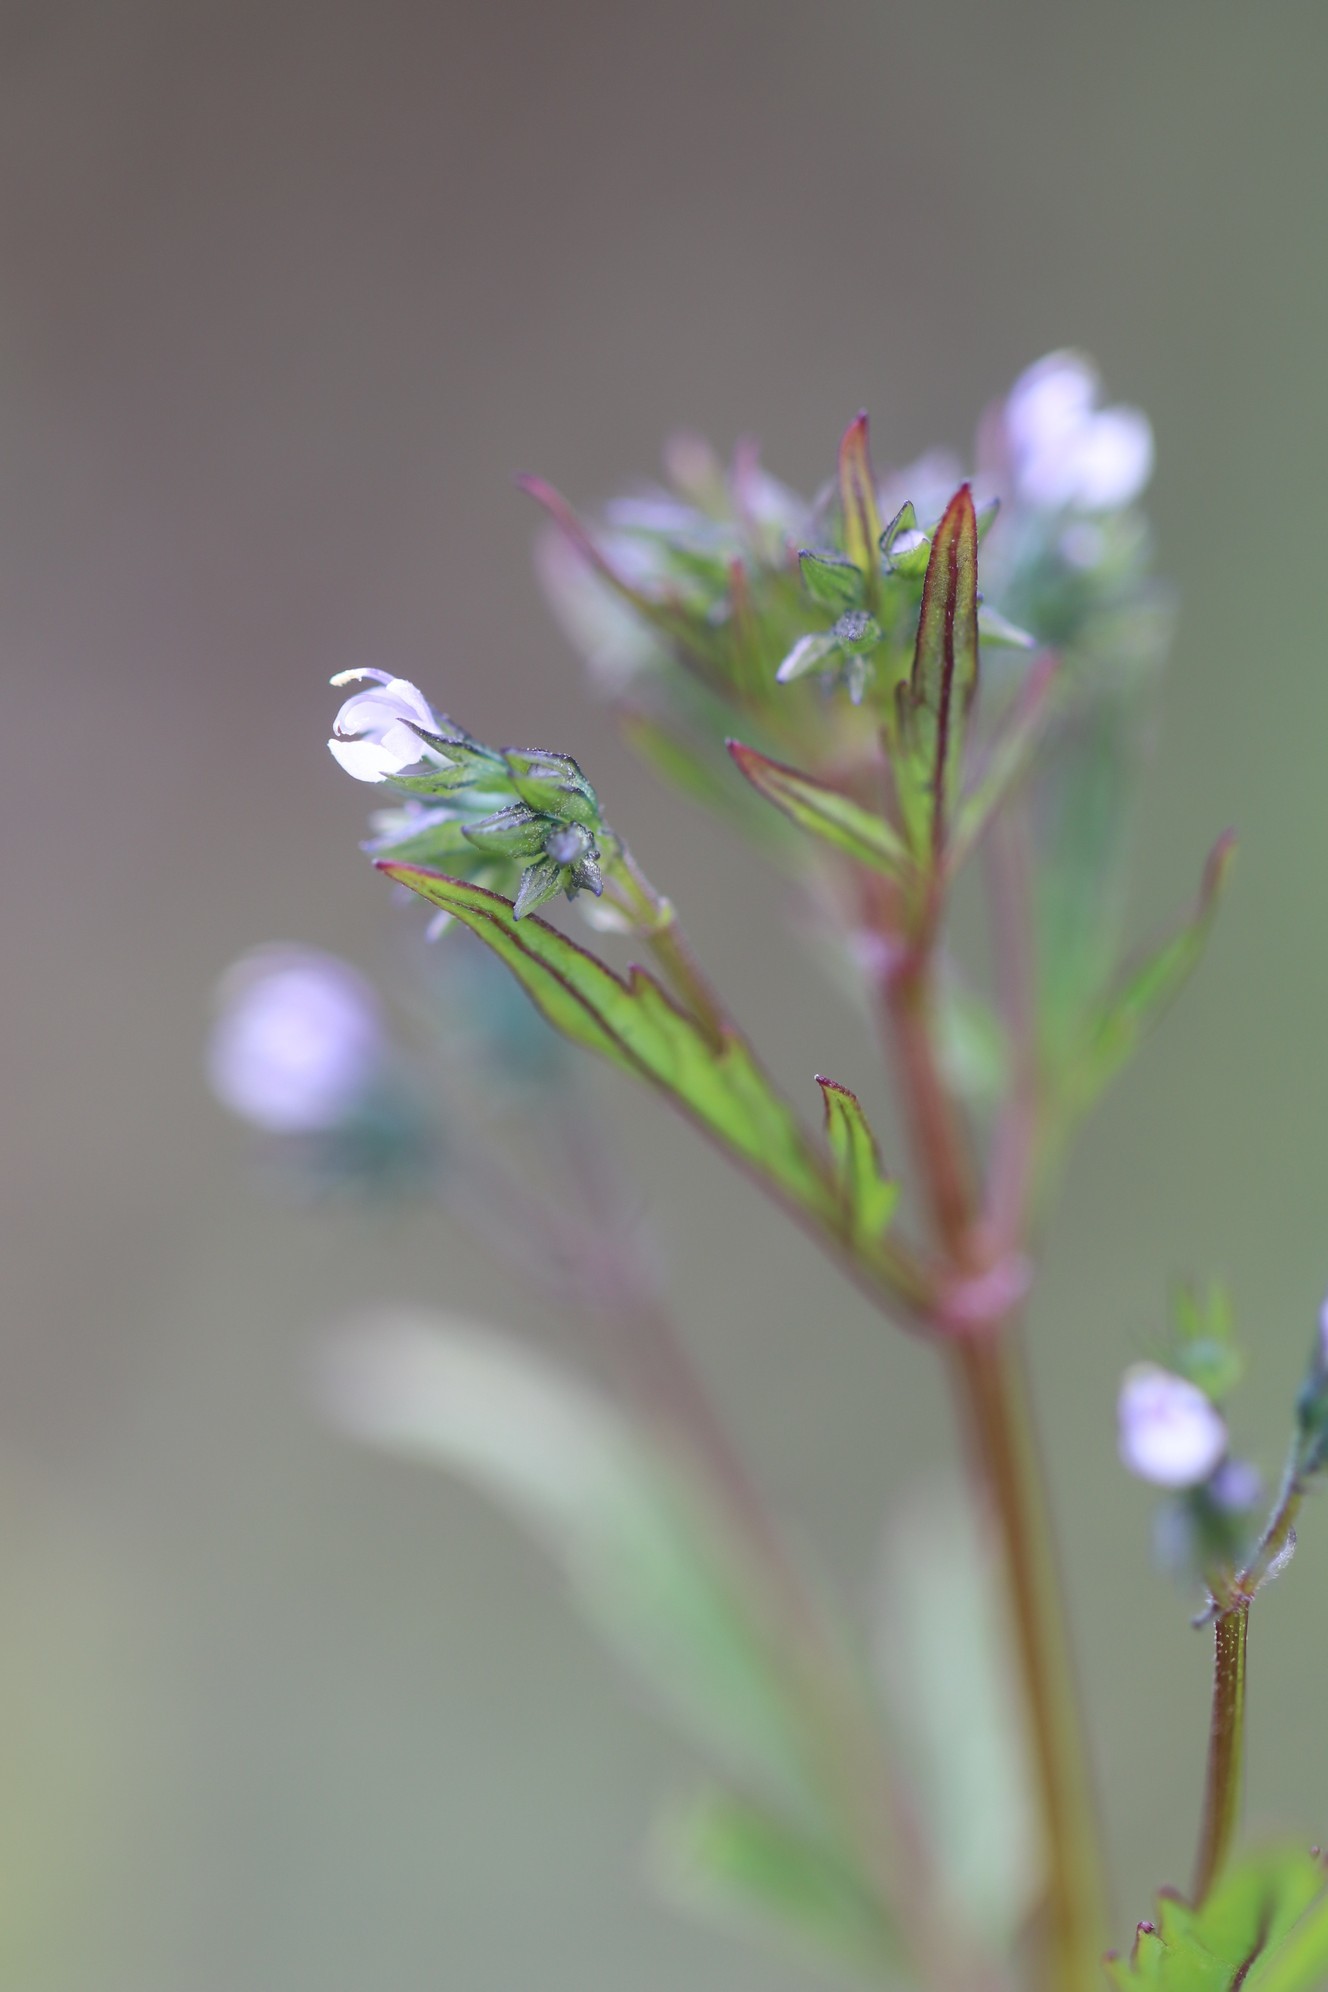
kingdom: Plantae
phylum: Tracheophyta
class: Magnoliopsida
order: Lamiales
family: Lamiaceae
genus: Amethystea
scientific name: Amethystea caerulea
